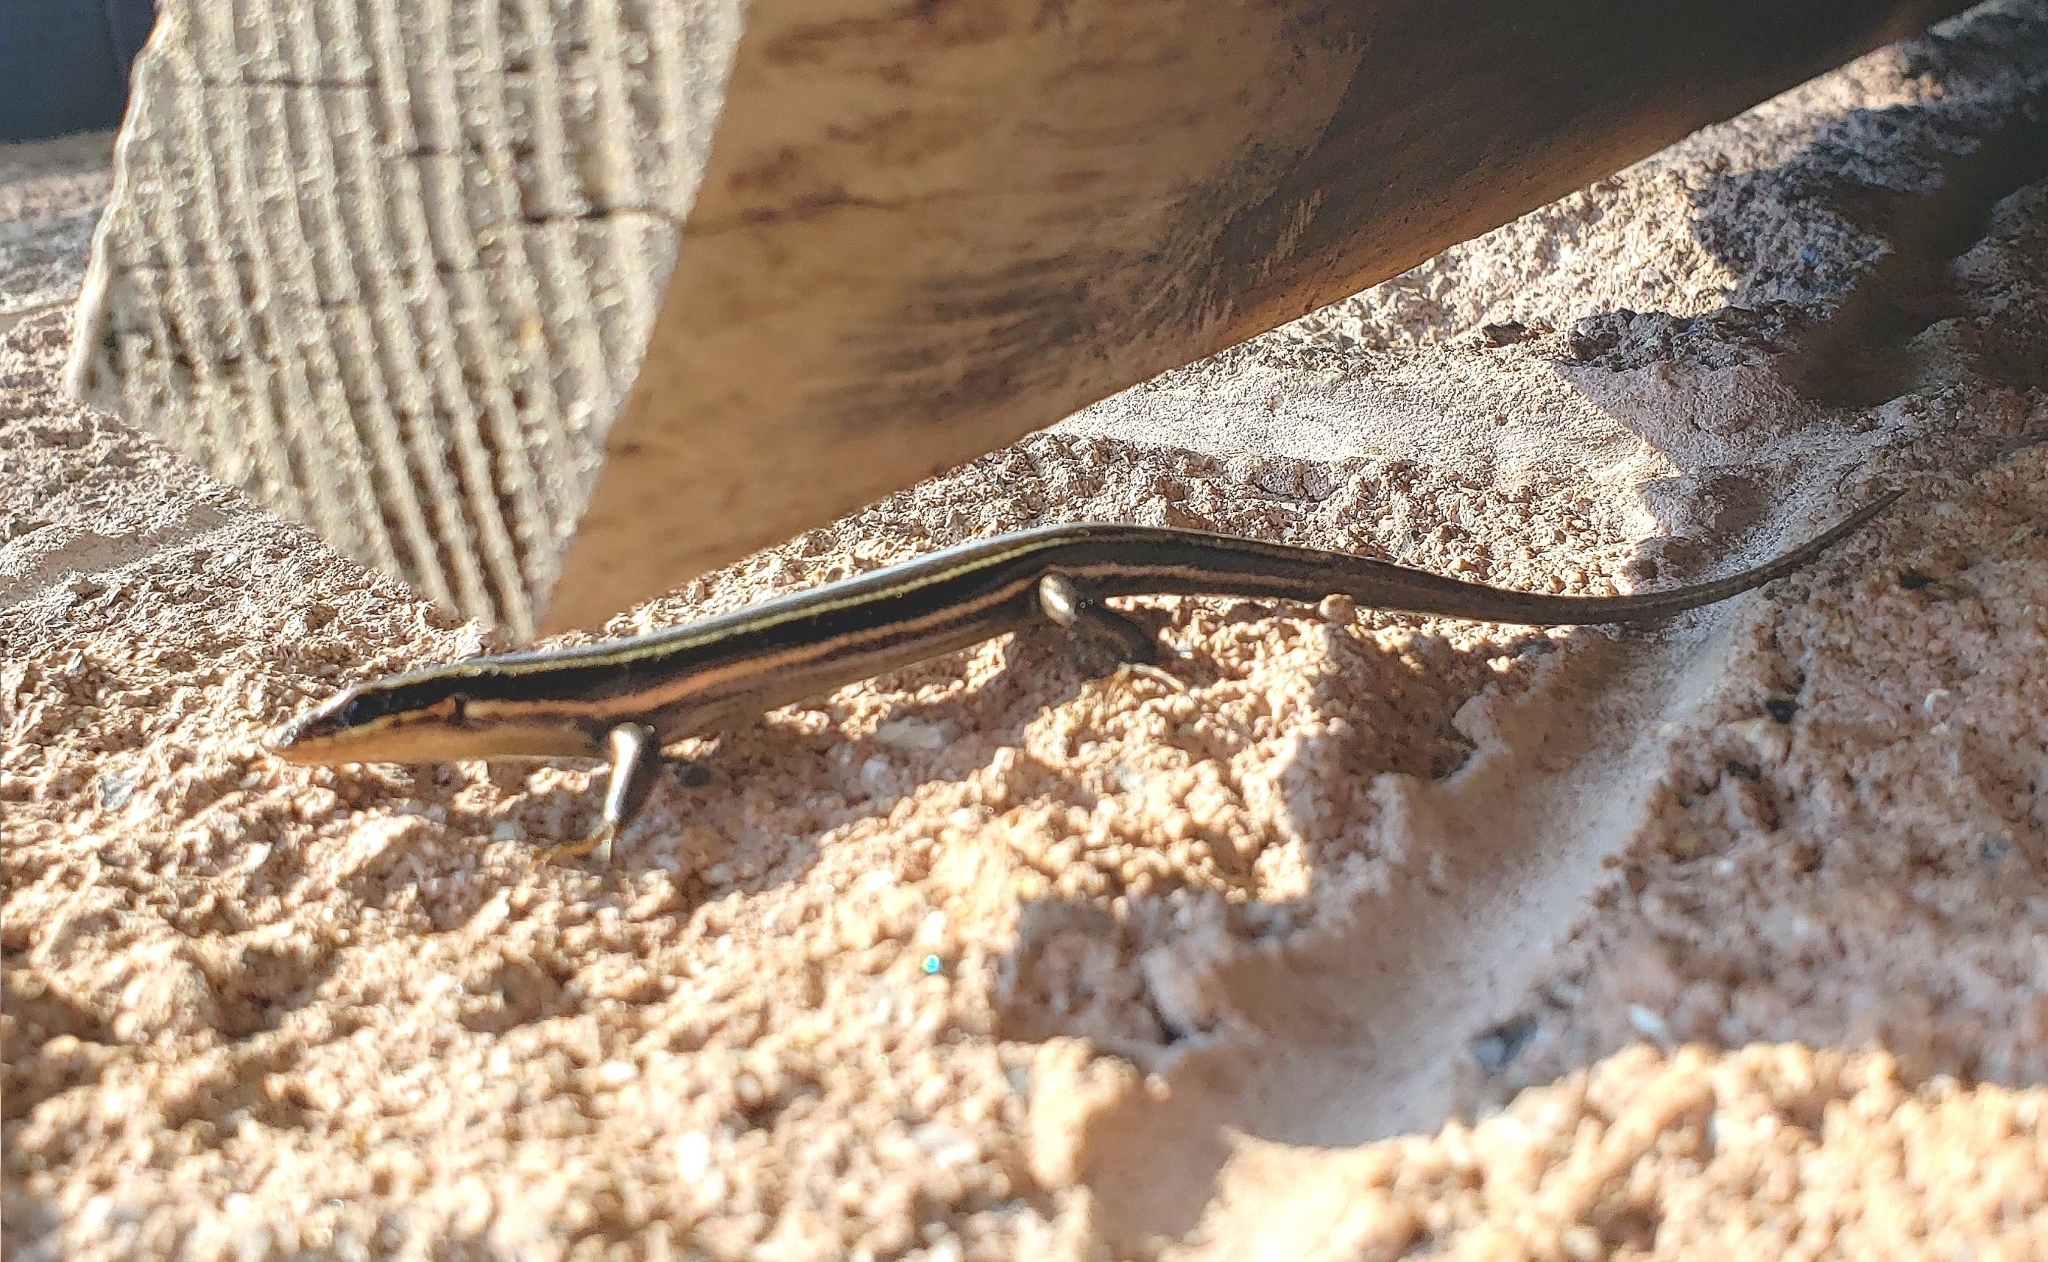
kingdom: Animalia
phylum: Chordata
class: Squamata
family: Scincidae
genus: Plestiodon
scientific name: Plestiodon fasciatus
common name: Five-lined skink
